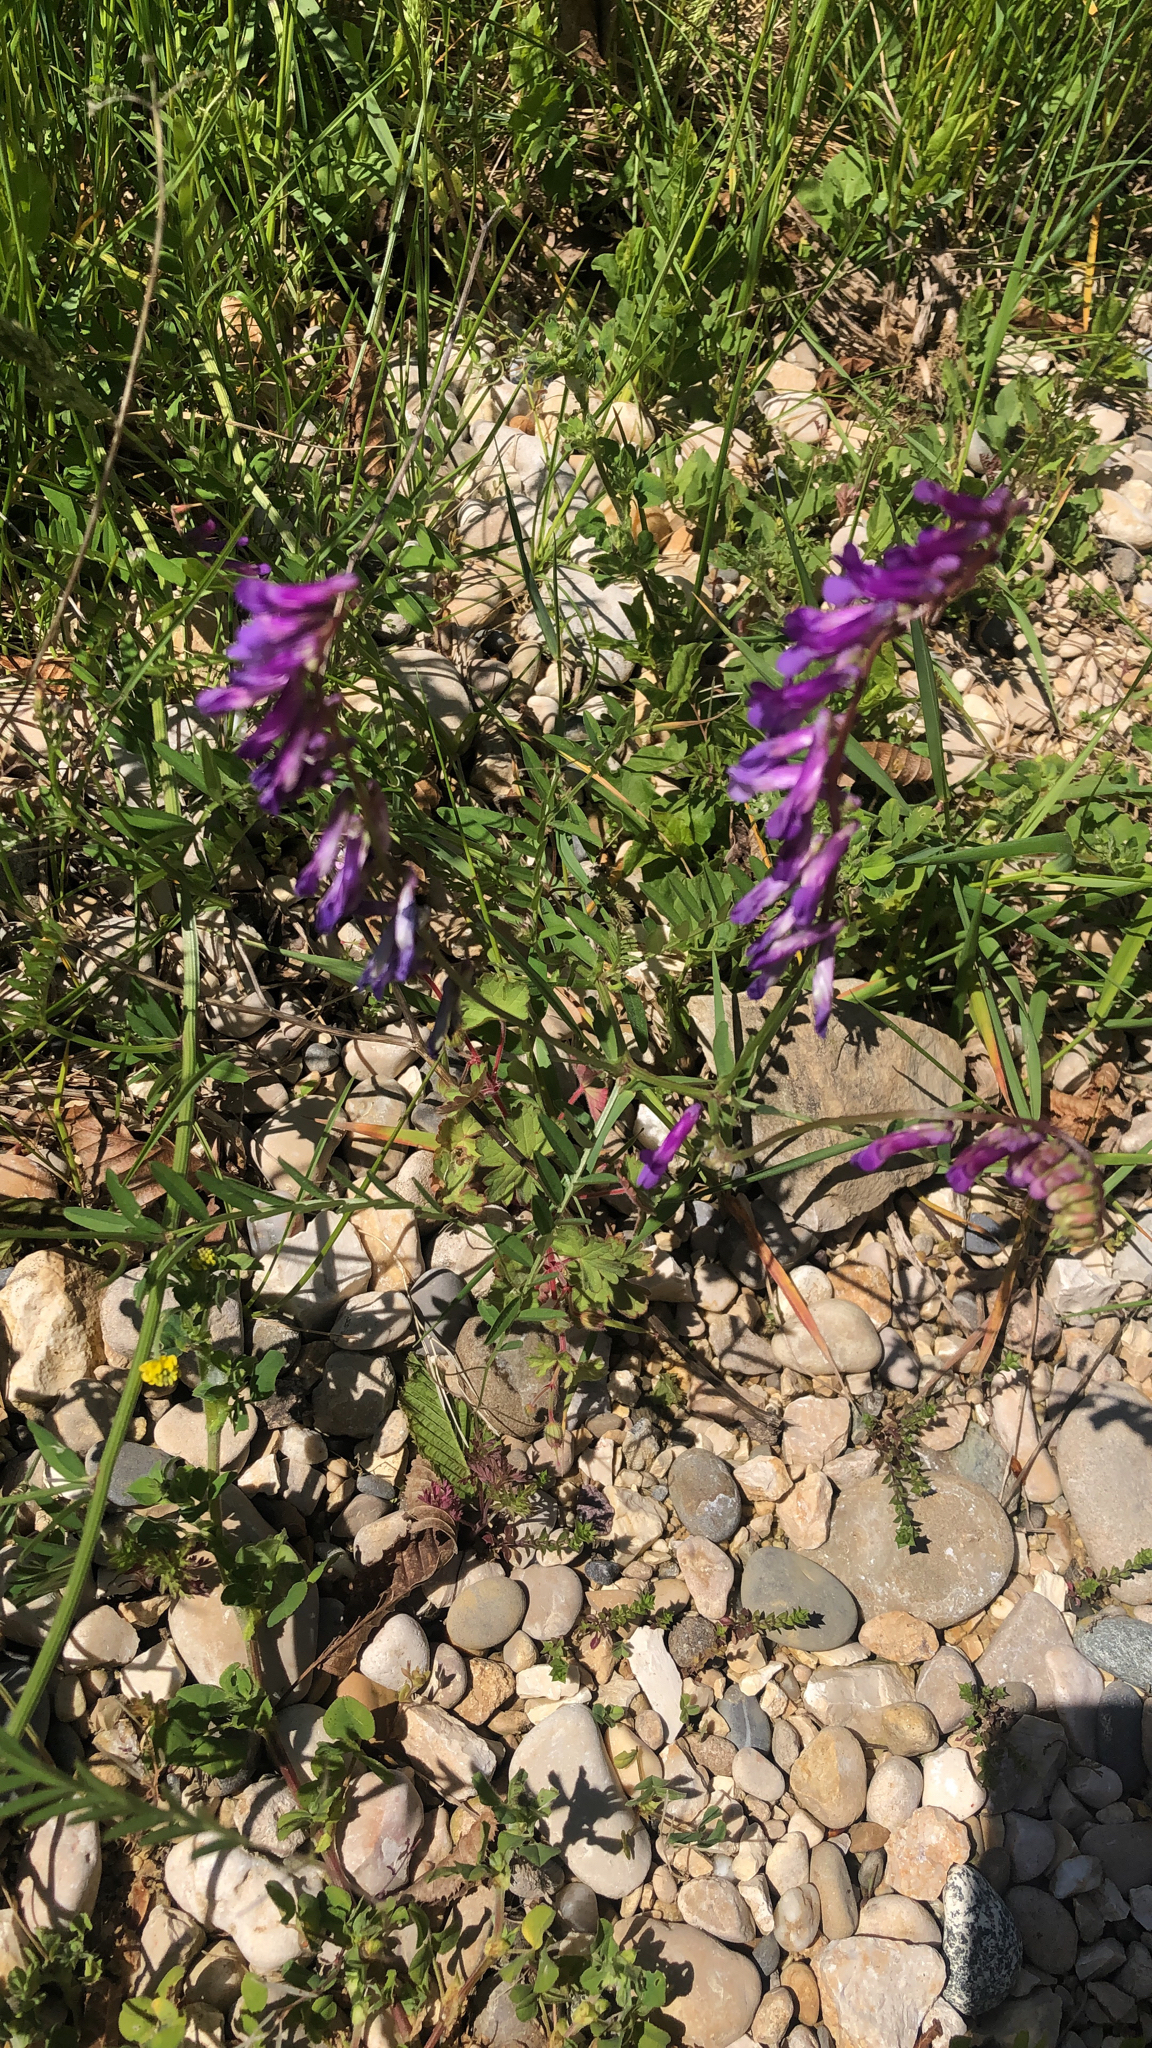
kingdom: Plantae
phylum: Tracheophyta
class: Magnoliopsida
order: Fabales
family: Fabaceae
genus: Vicia
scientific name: Vicia villosa
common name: Fodder vetch
